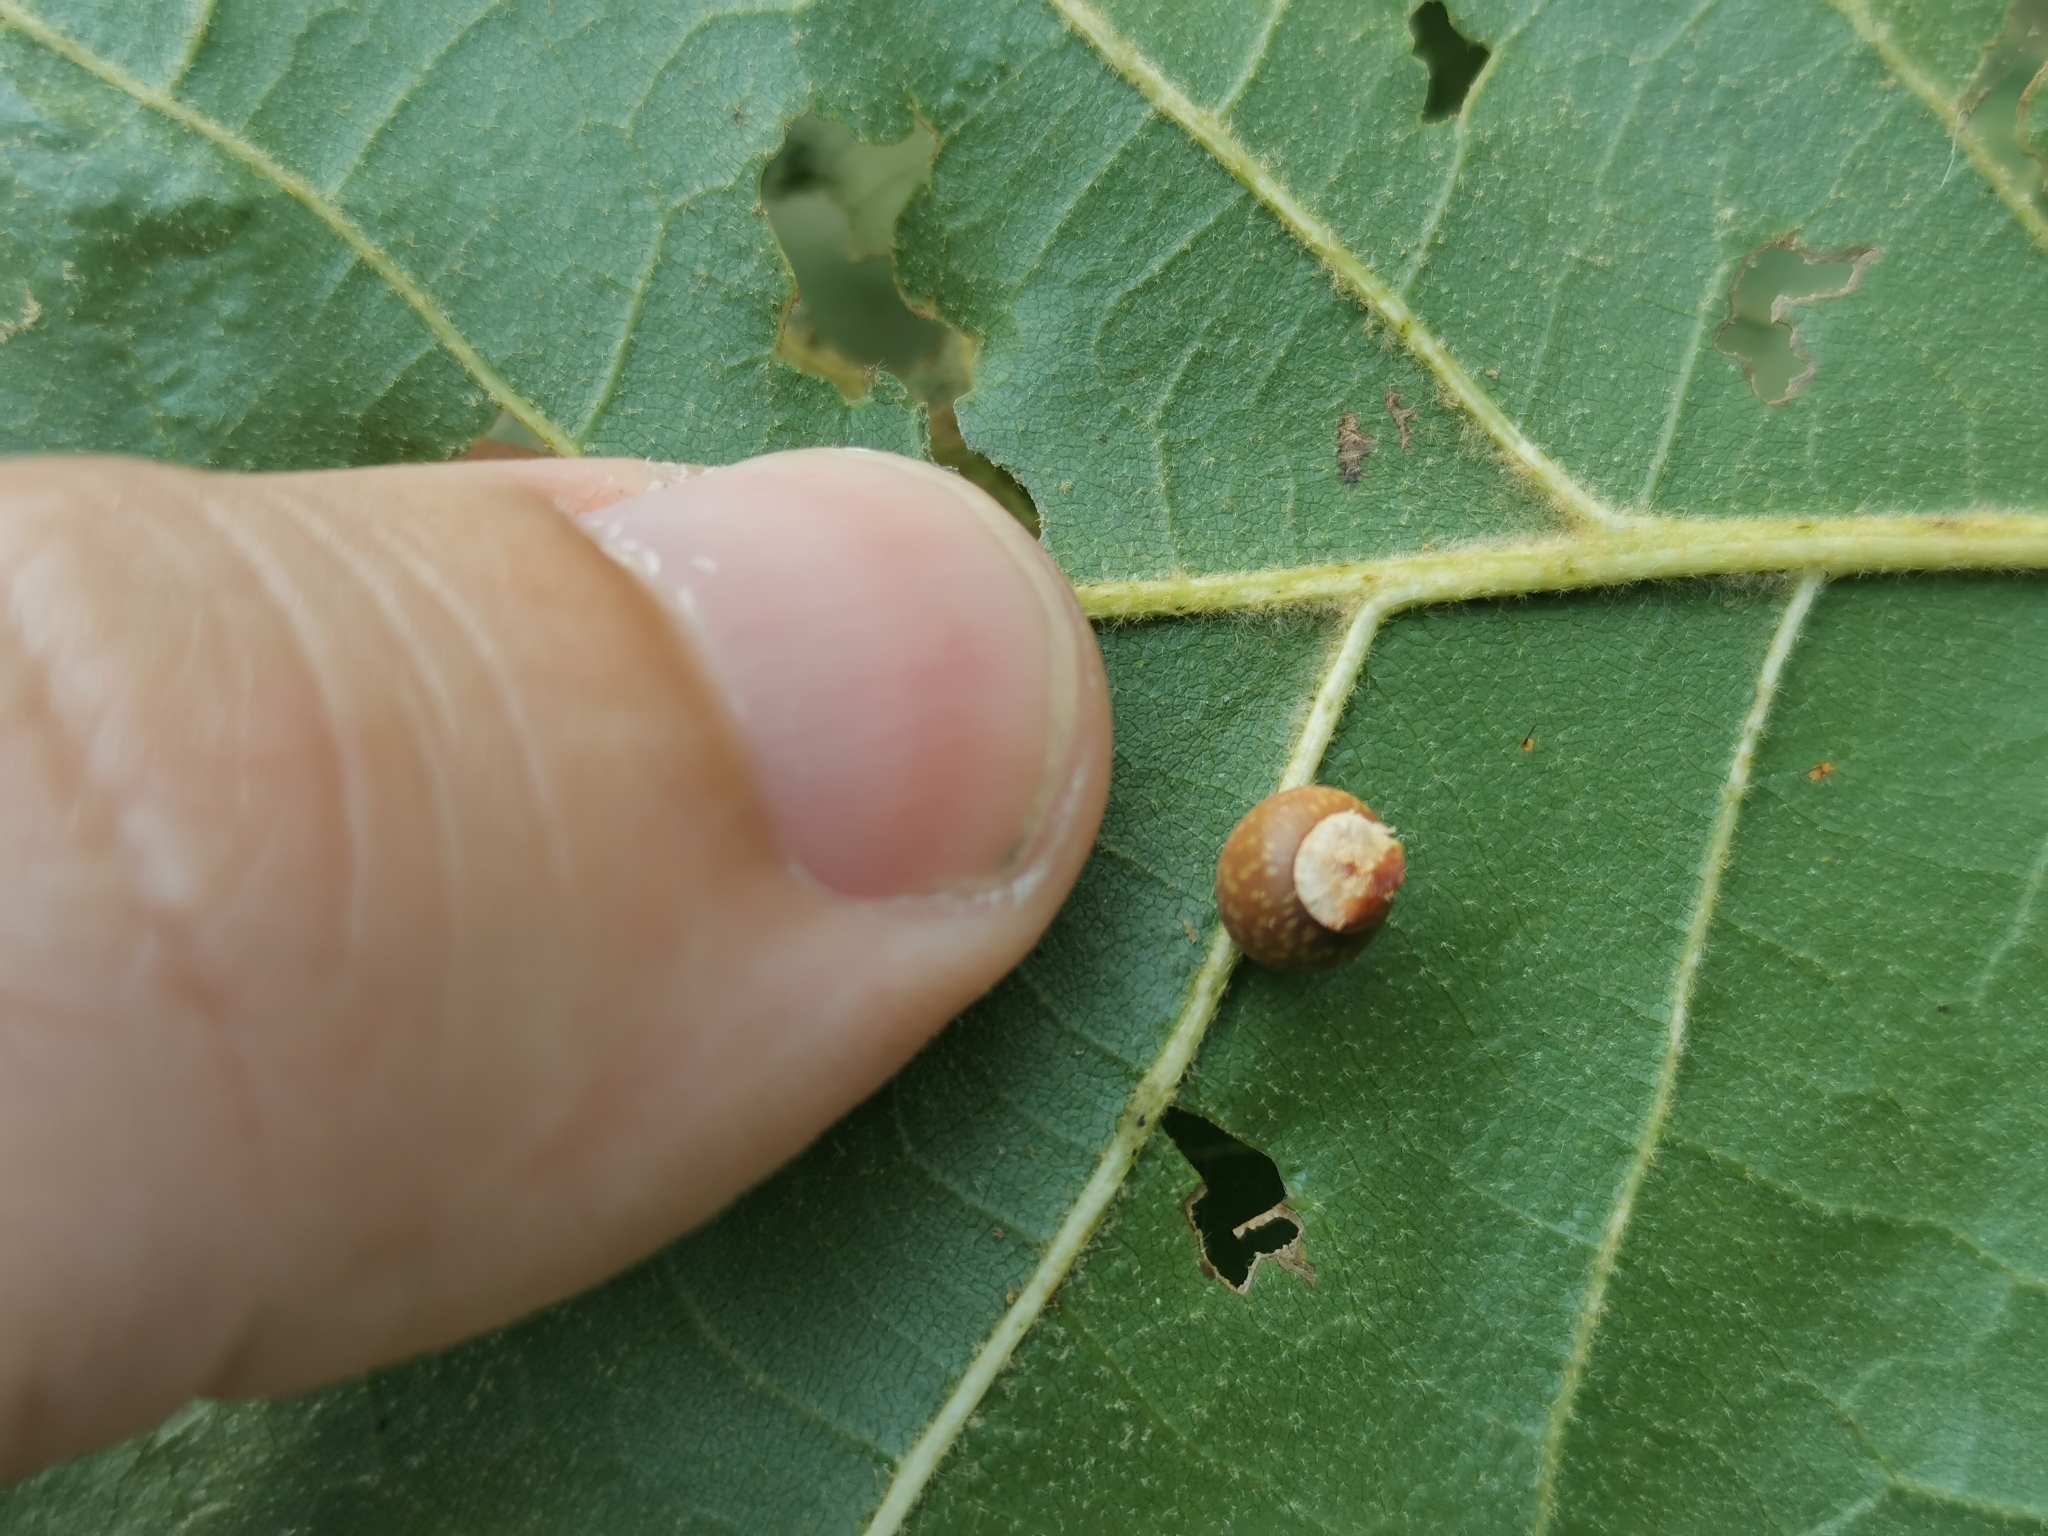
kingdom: Animalia
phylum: Arthropoda
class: Insecta
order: Hymenoptera
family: Cynipidae
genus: Kokkocynips
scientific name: Kokkocynips rileyi
